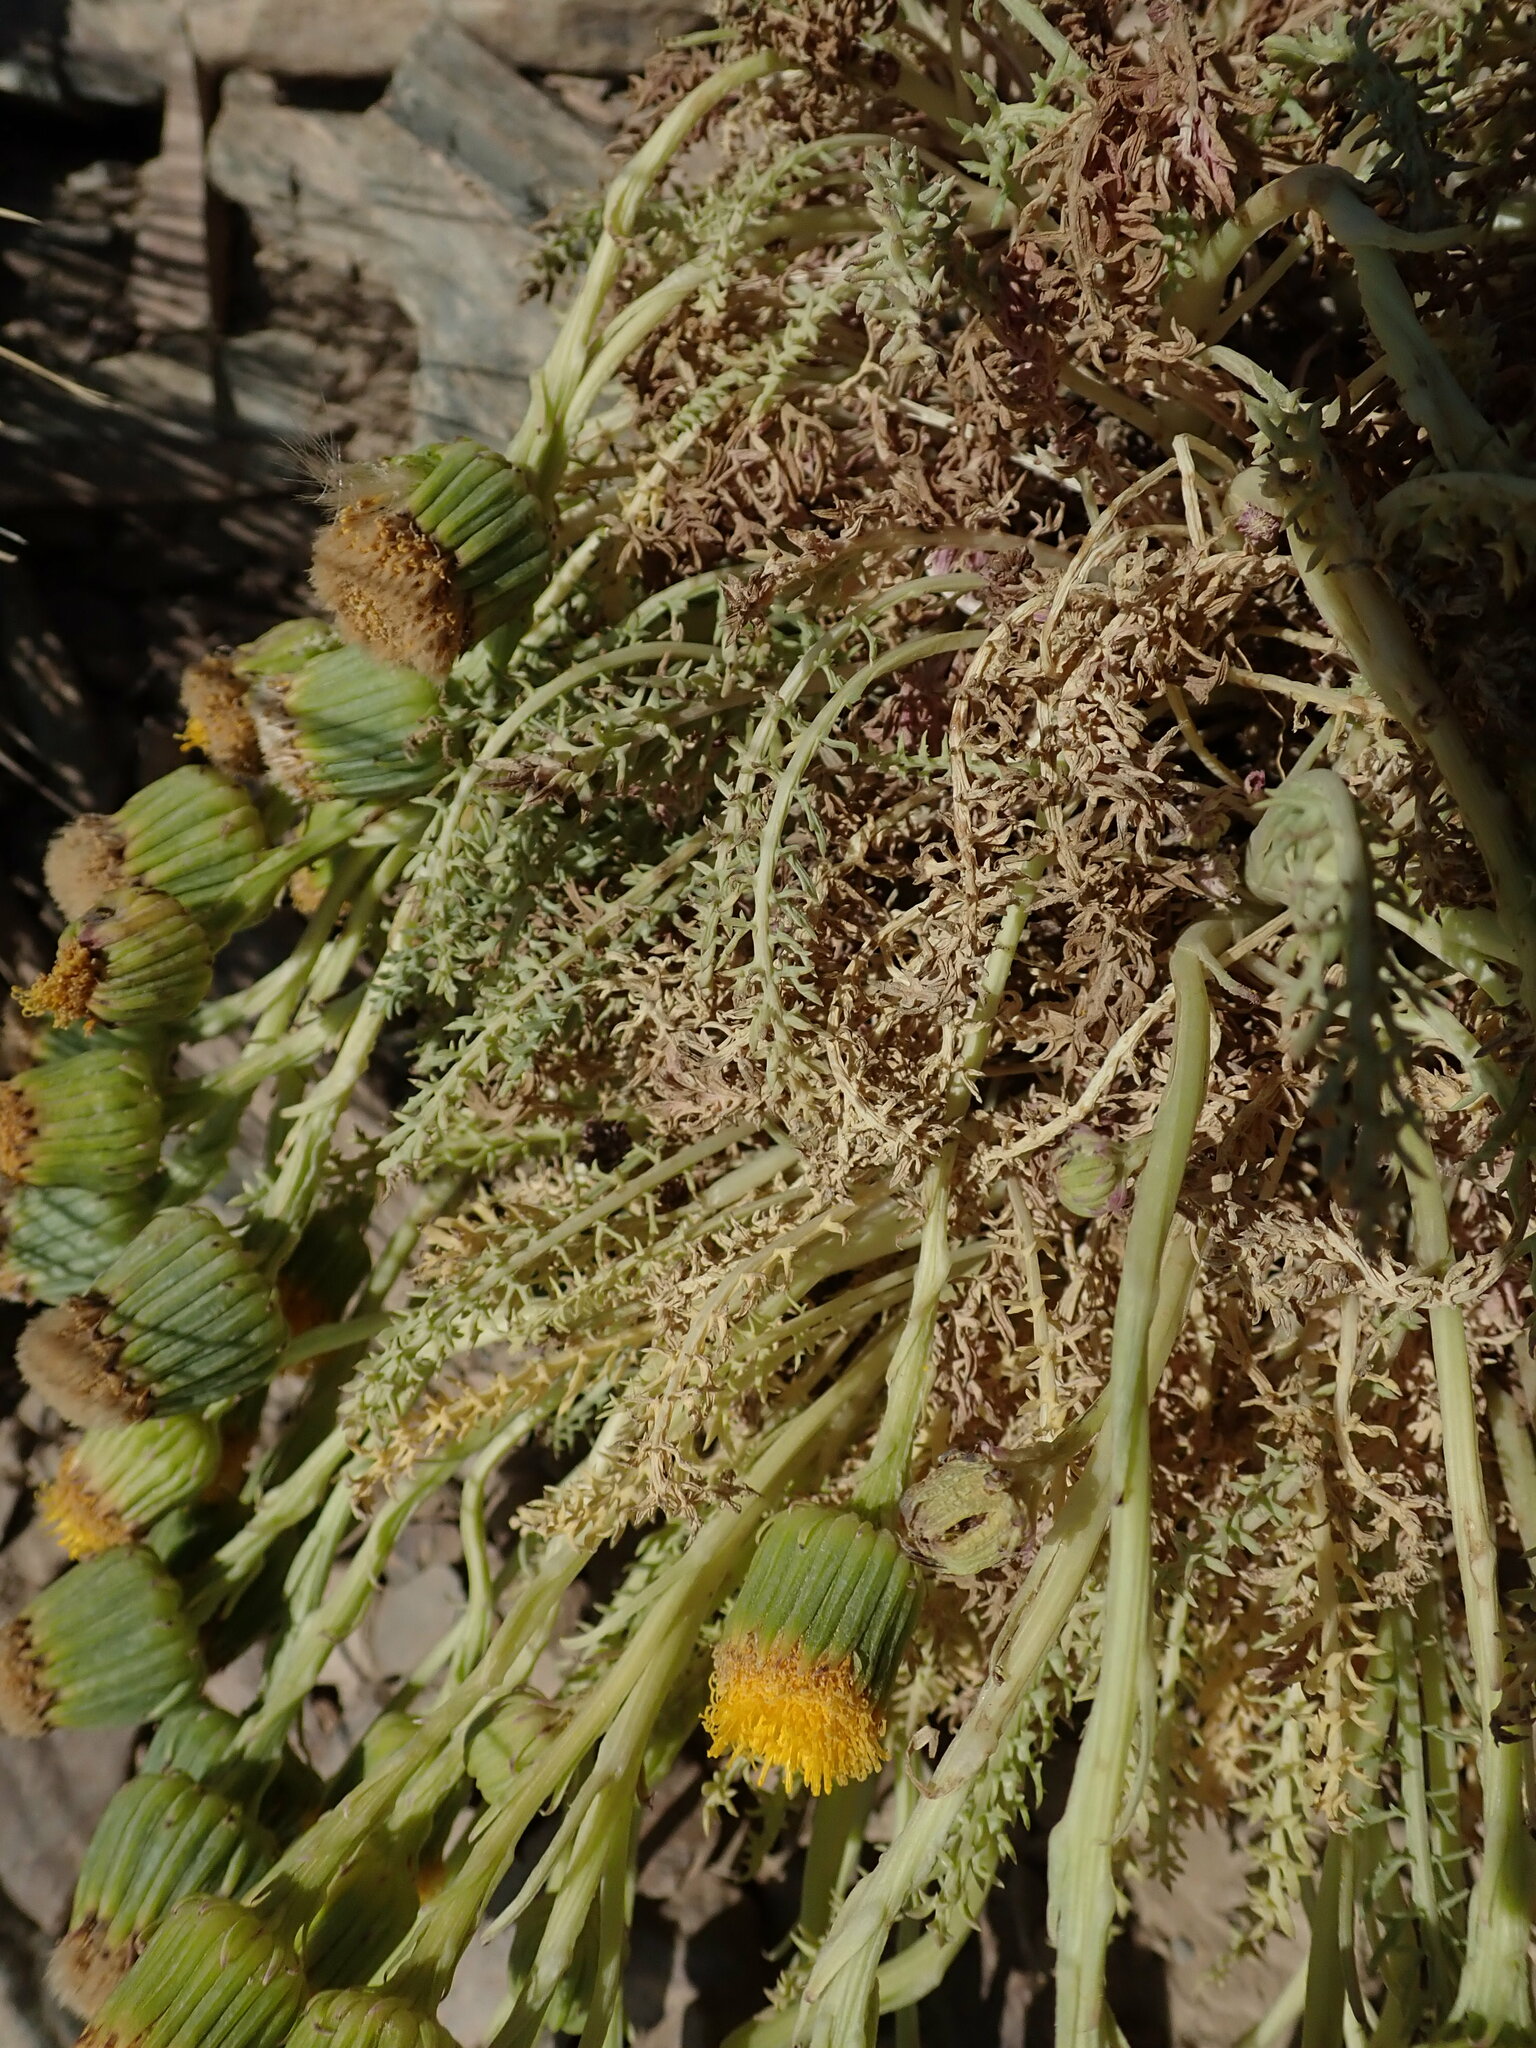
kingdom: Plantae
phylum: Tracheophyta
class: Magnoliopsida
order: Asterales
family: Asteraceae
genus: Senecio
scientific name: Senecio jarae
